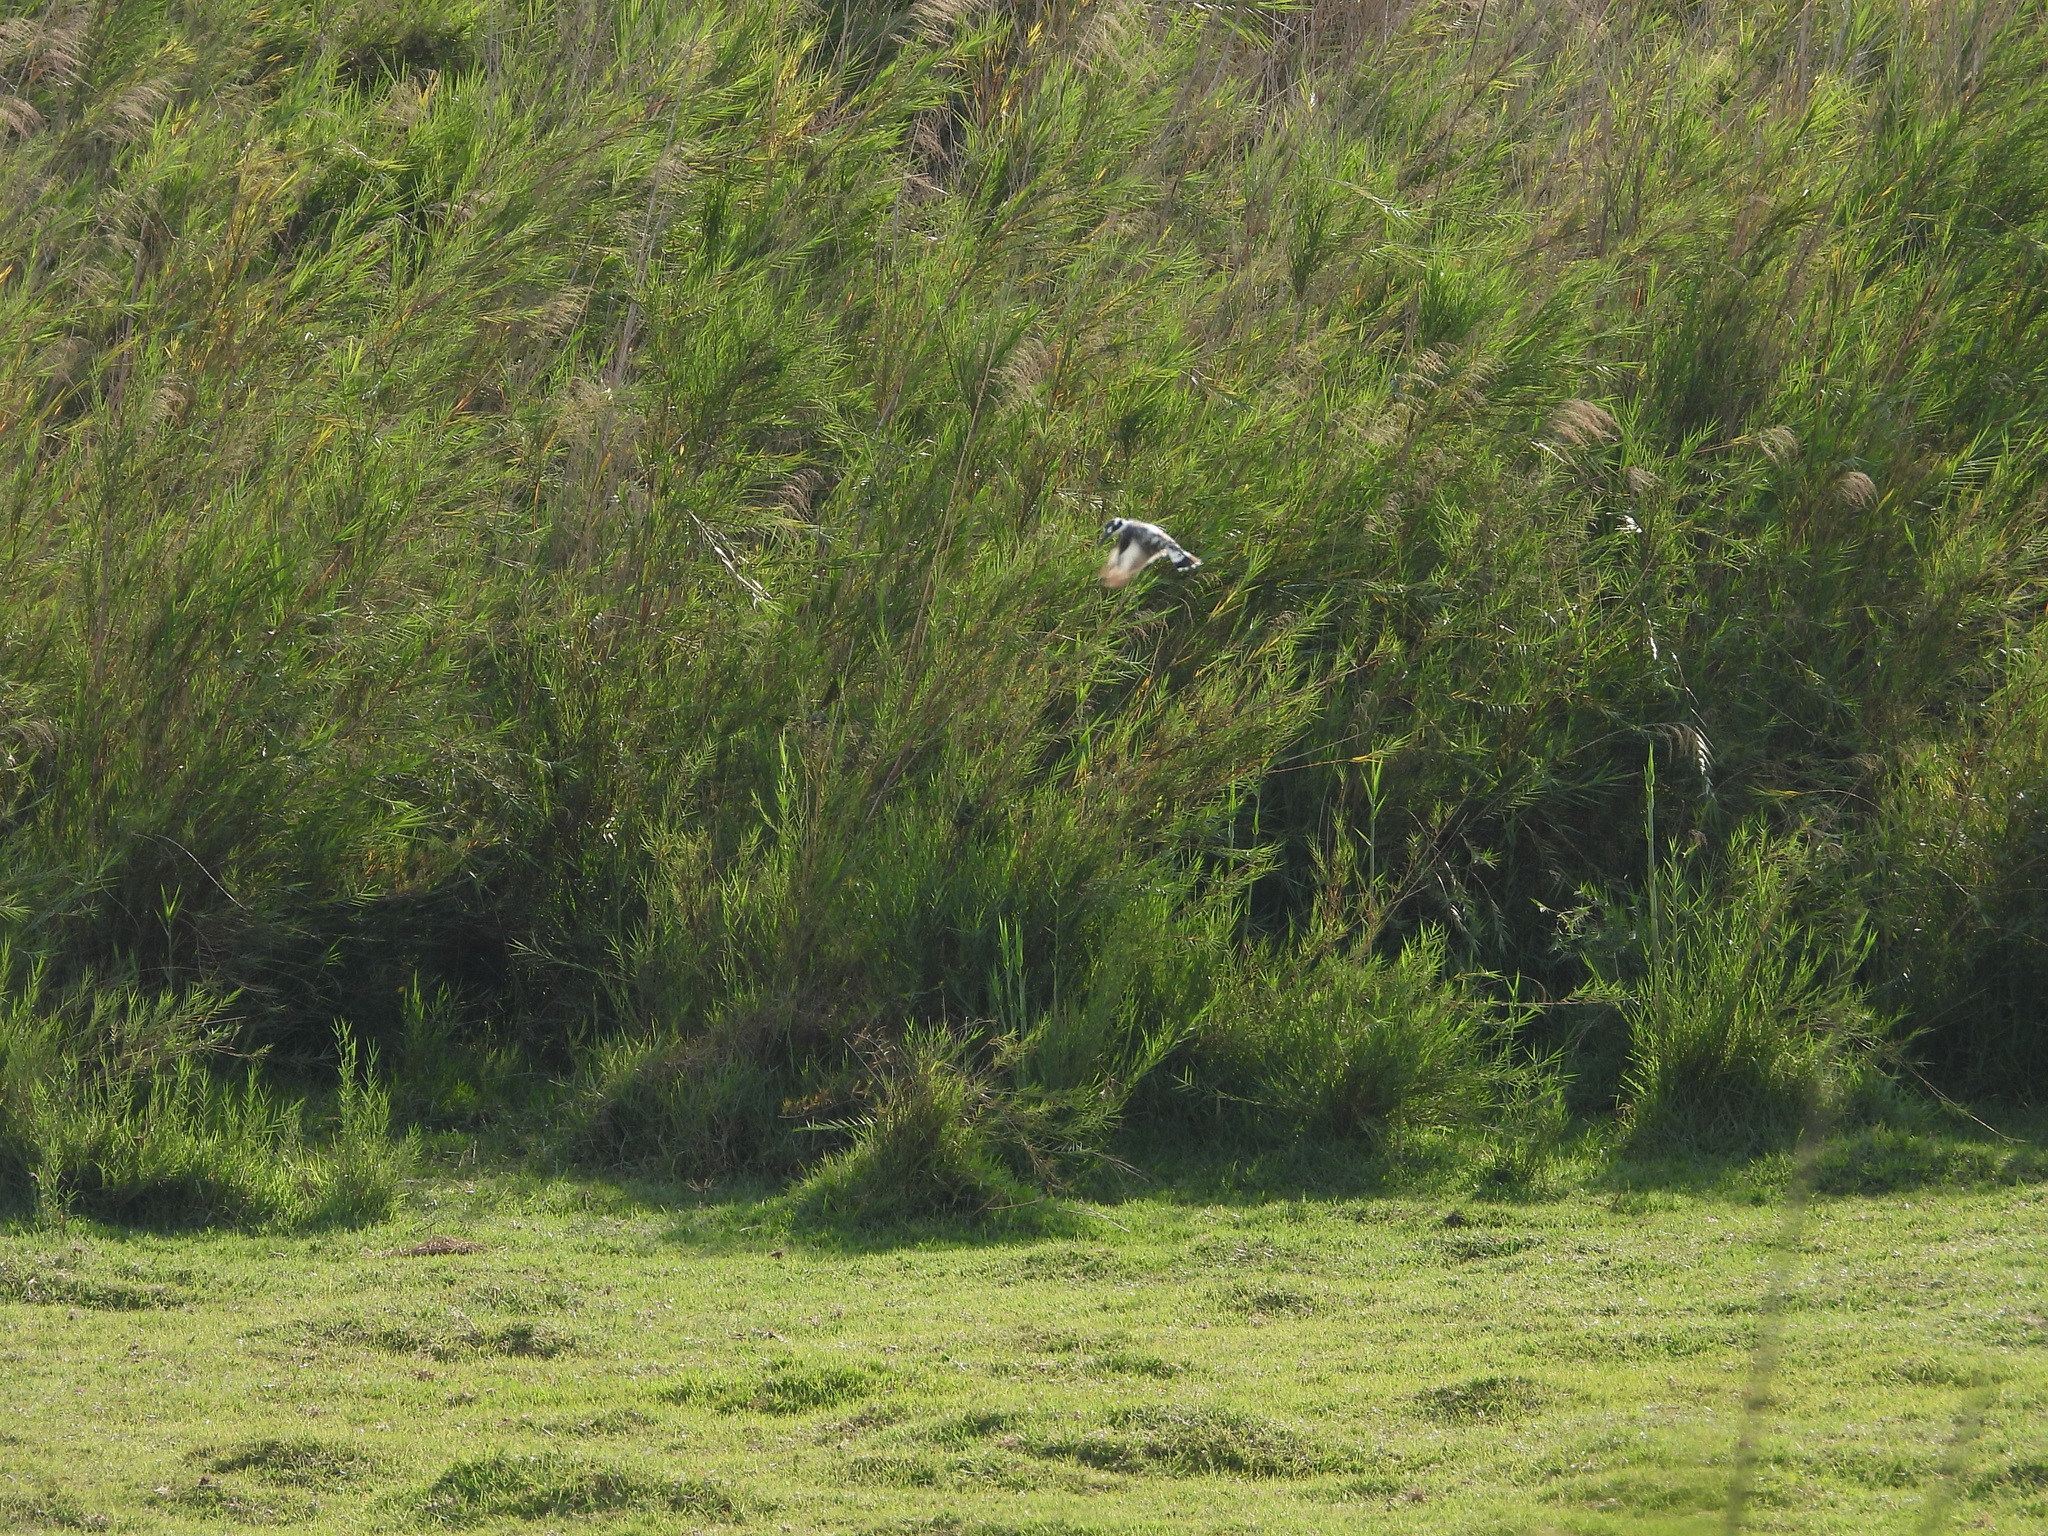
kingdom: Animalia
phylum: Chordata
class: Aves
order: Coraciiformes
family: Alcedinidae
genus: Ceryle
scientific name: Ceryle rudis
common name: Pied kingfisher
